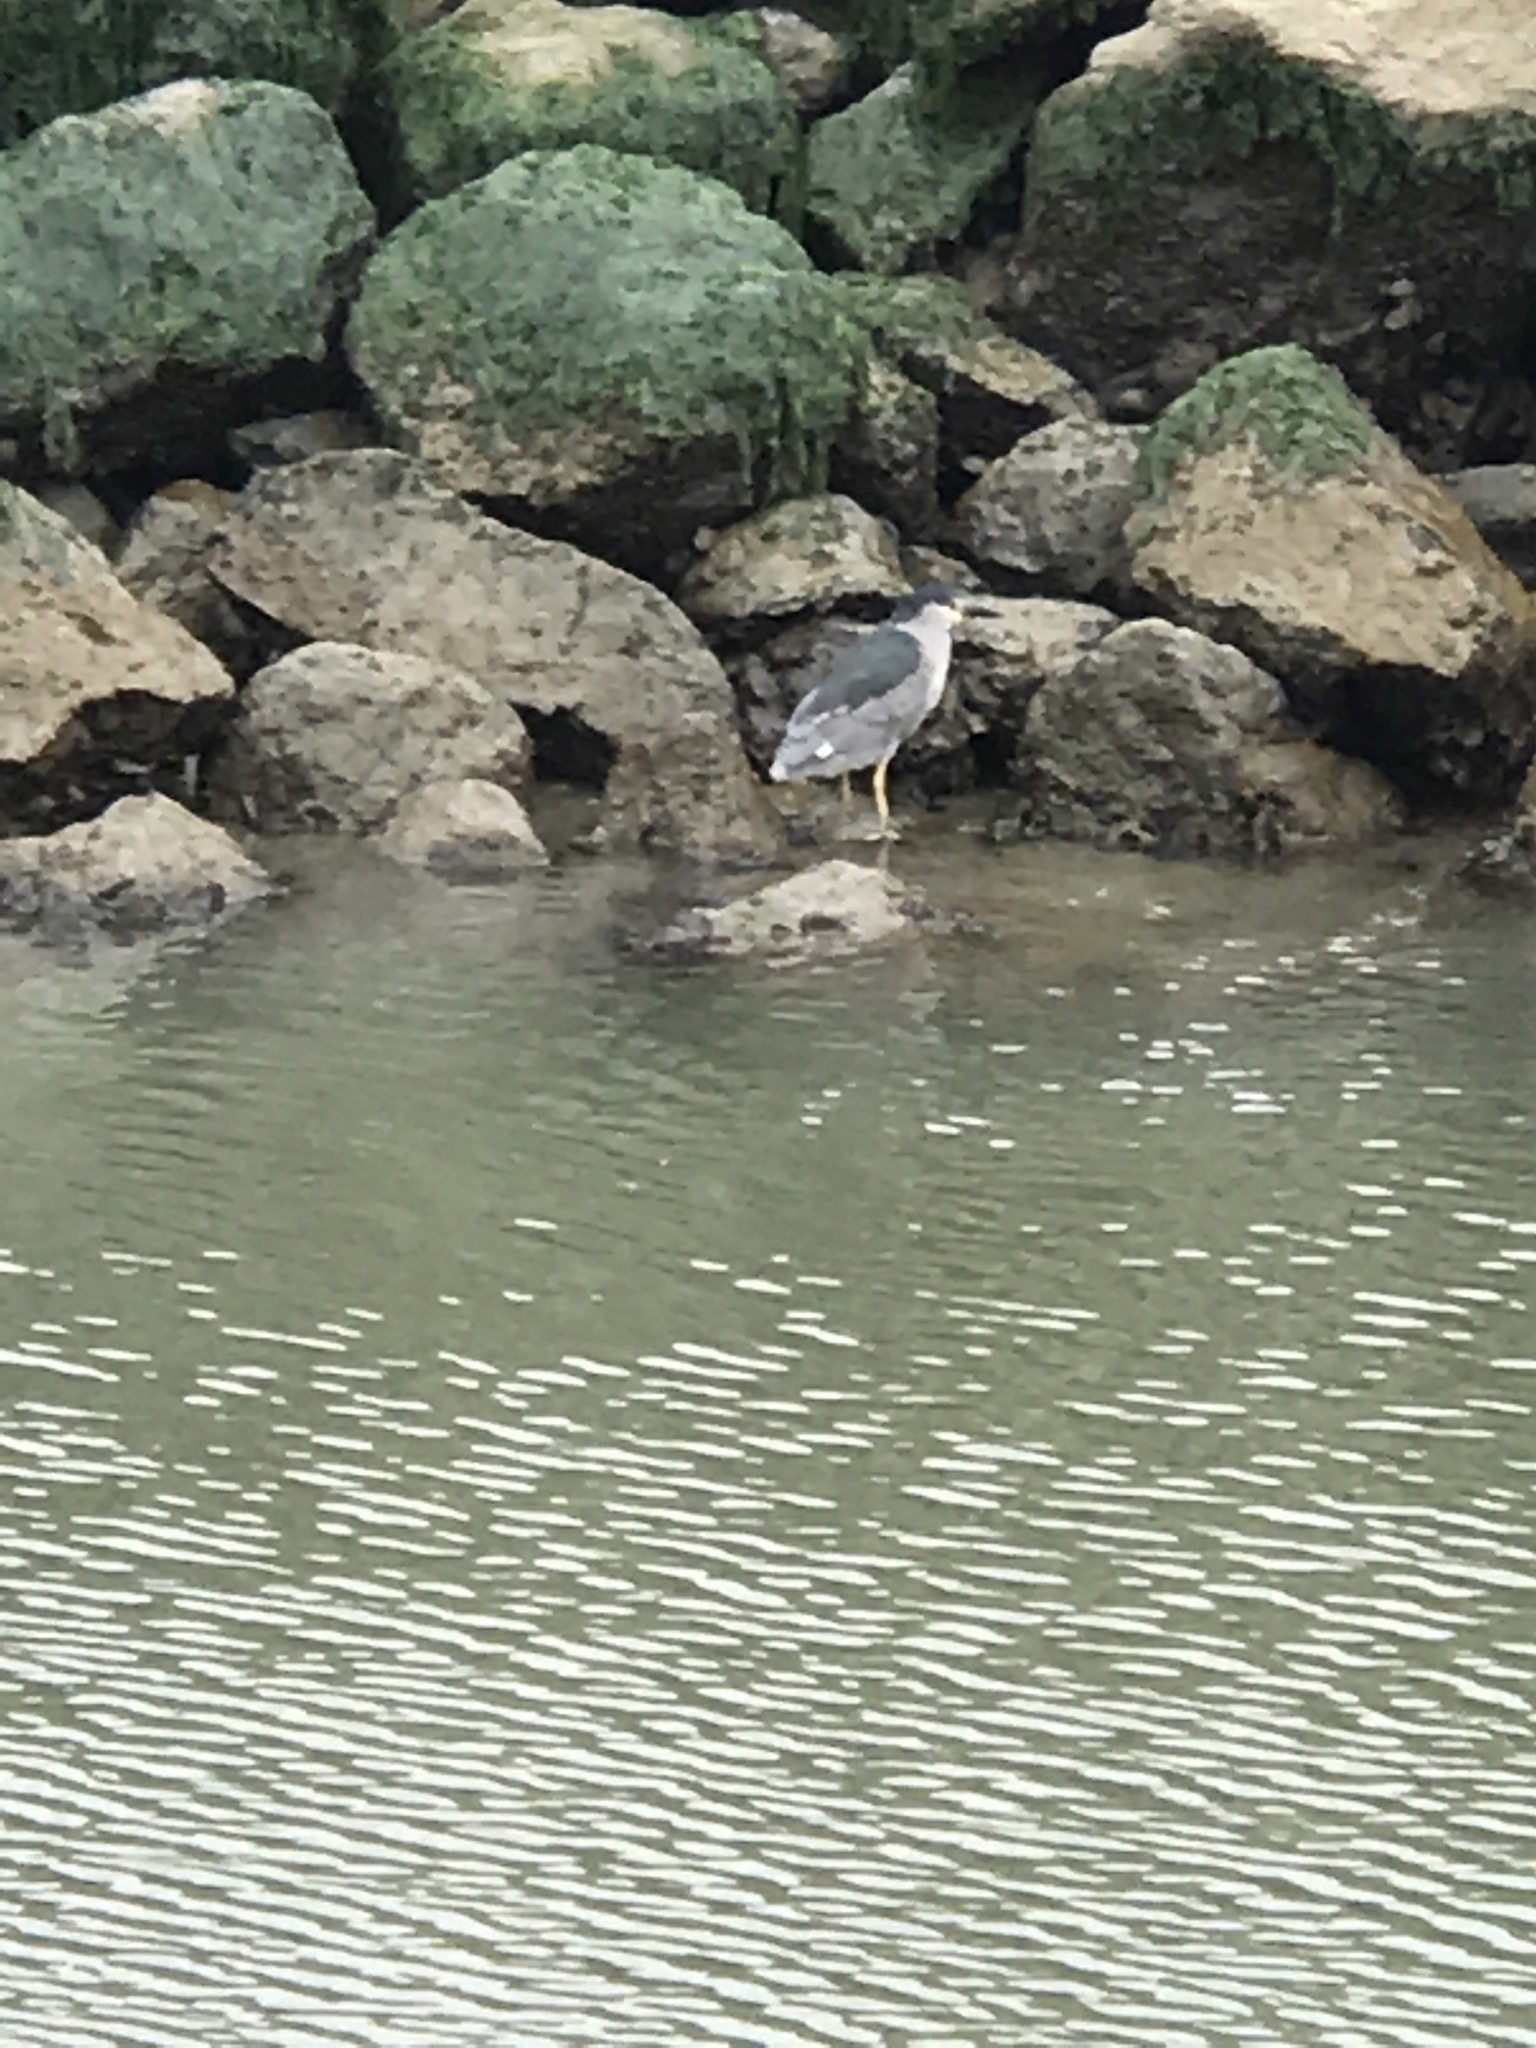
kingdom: Animalia
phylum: Chordata
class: Aves
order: Pelecaniformes
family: Ardeidae
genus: Nycticorax
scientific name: Nycticorax nycticorax
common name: Black-crowned night heron
